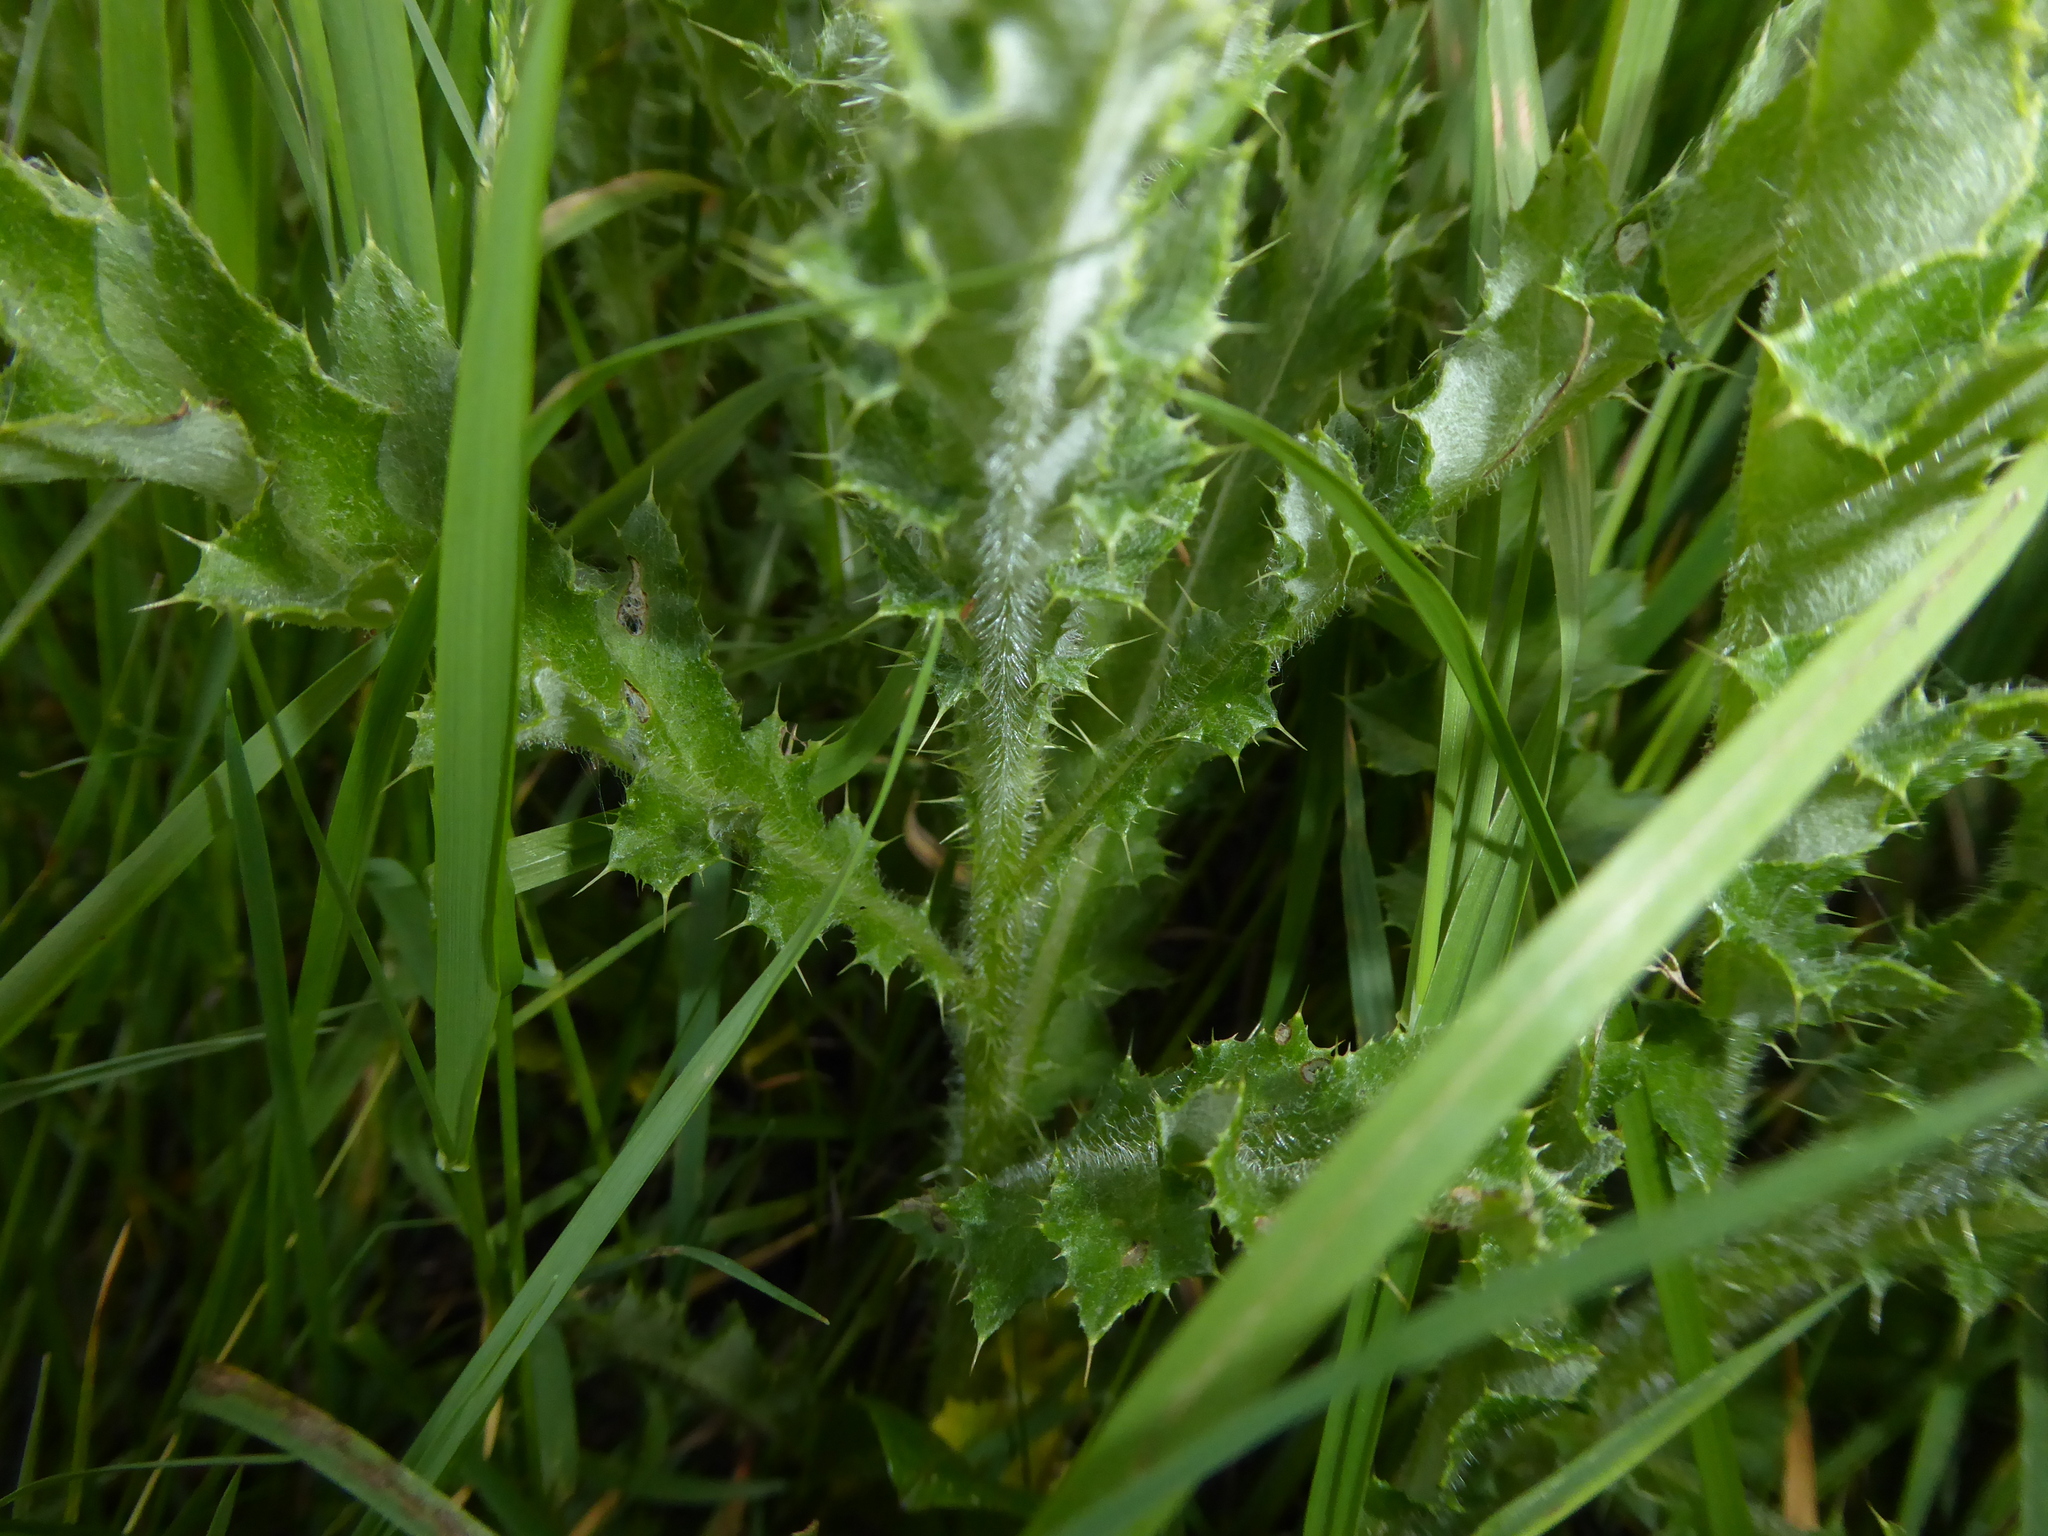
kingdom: Plantae
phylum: Tracheophyta
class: Magnoliopsida
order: Asterales
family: Asteraceae
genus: Cirsium
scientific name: Cirsium arvense
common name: Creeping thistle
